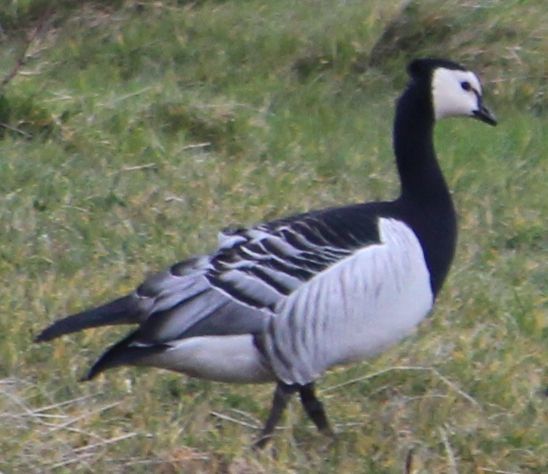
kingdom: Animalia
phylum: Chordata
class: Aves
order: Anseriformes
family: Anatidae
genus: Branta
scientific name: Branta leucopsis
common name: Barnacle goose
